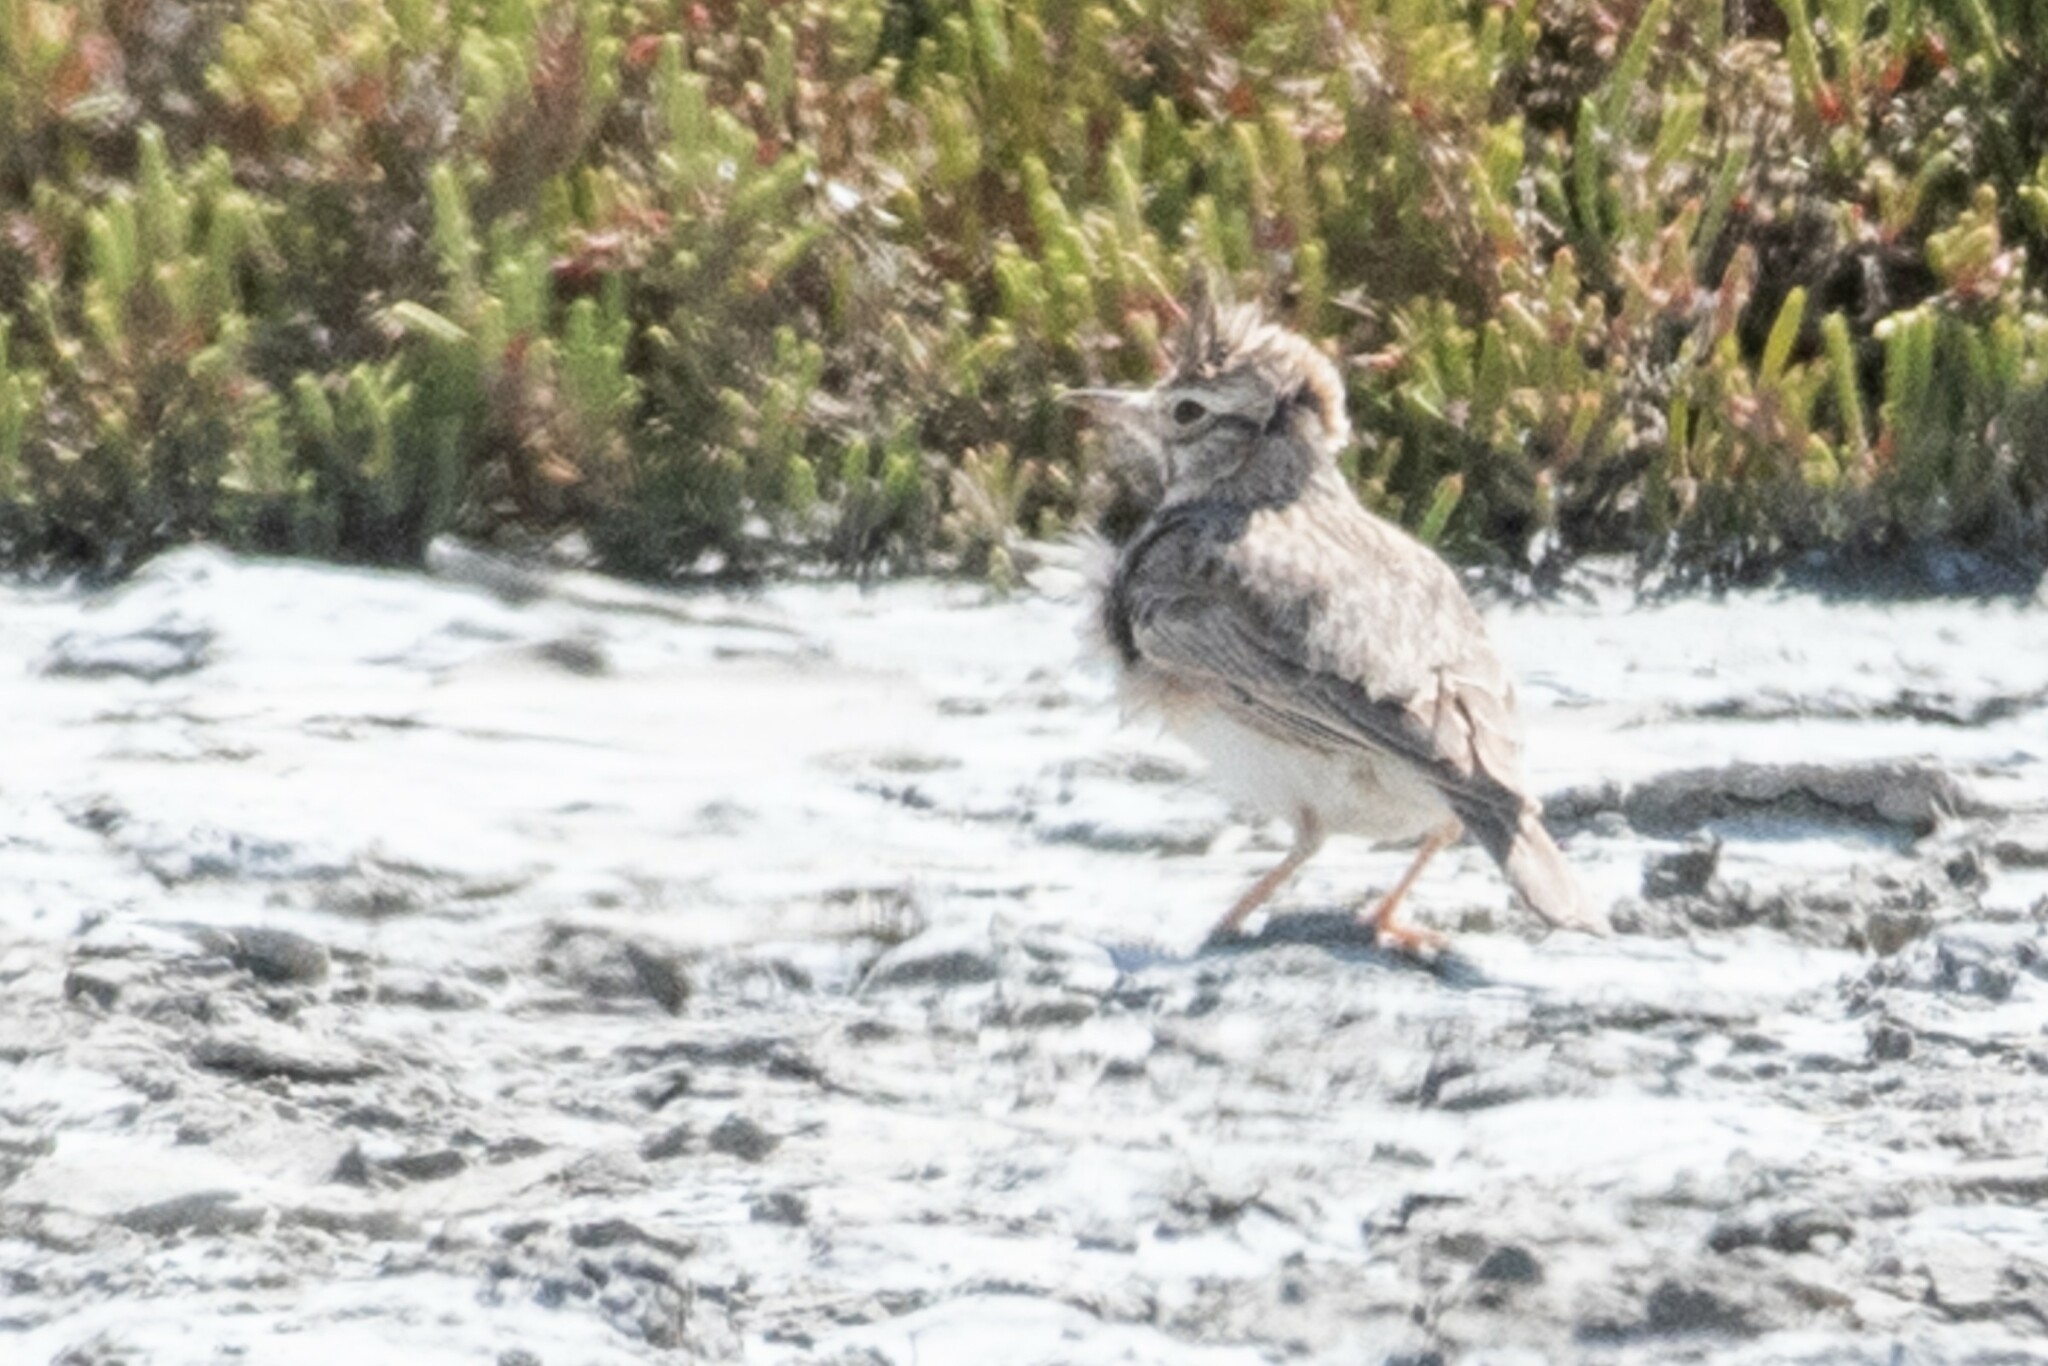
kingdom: Animalia
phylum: Chordata
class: Aves
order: Passeriformes
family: Alaudidae
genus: Galerida
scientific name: Galerida cristata
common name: Crested lark
